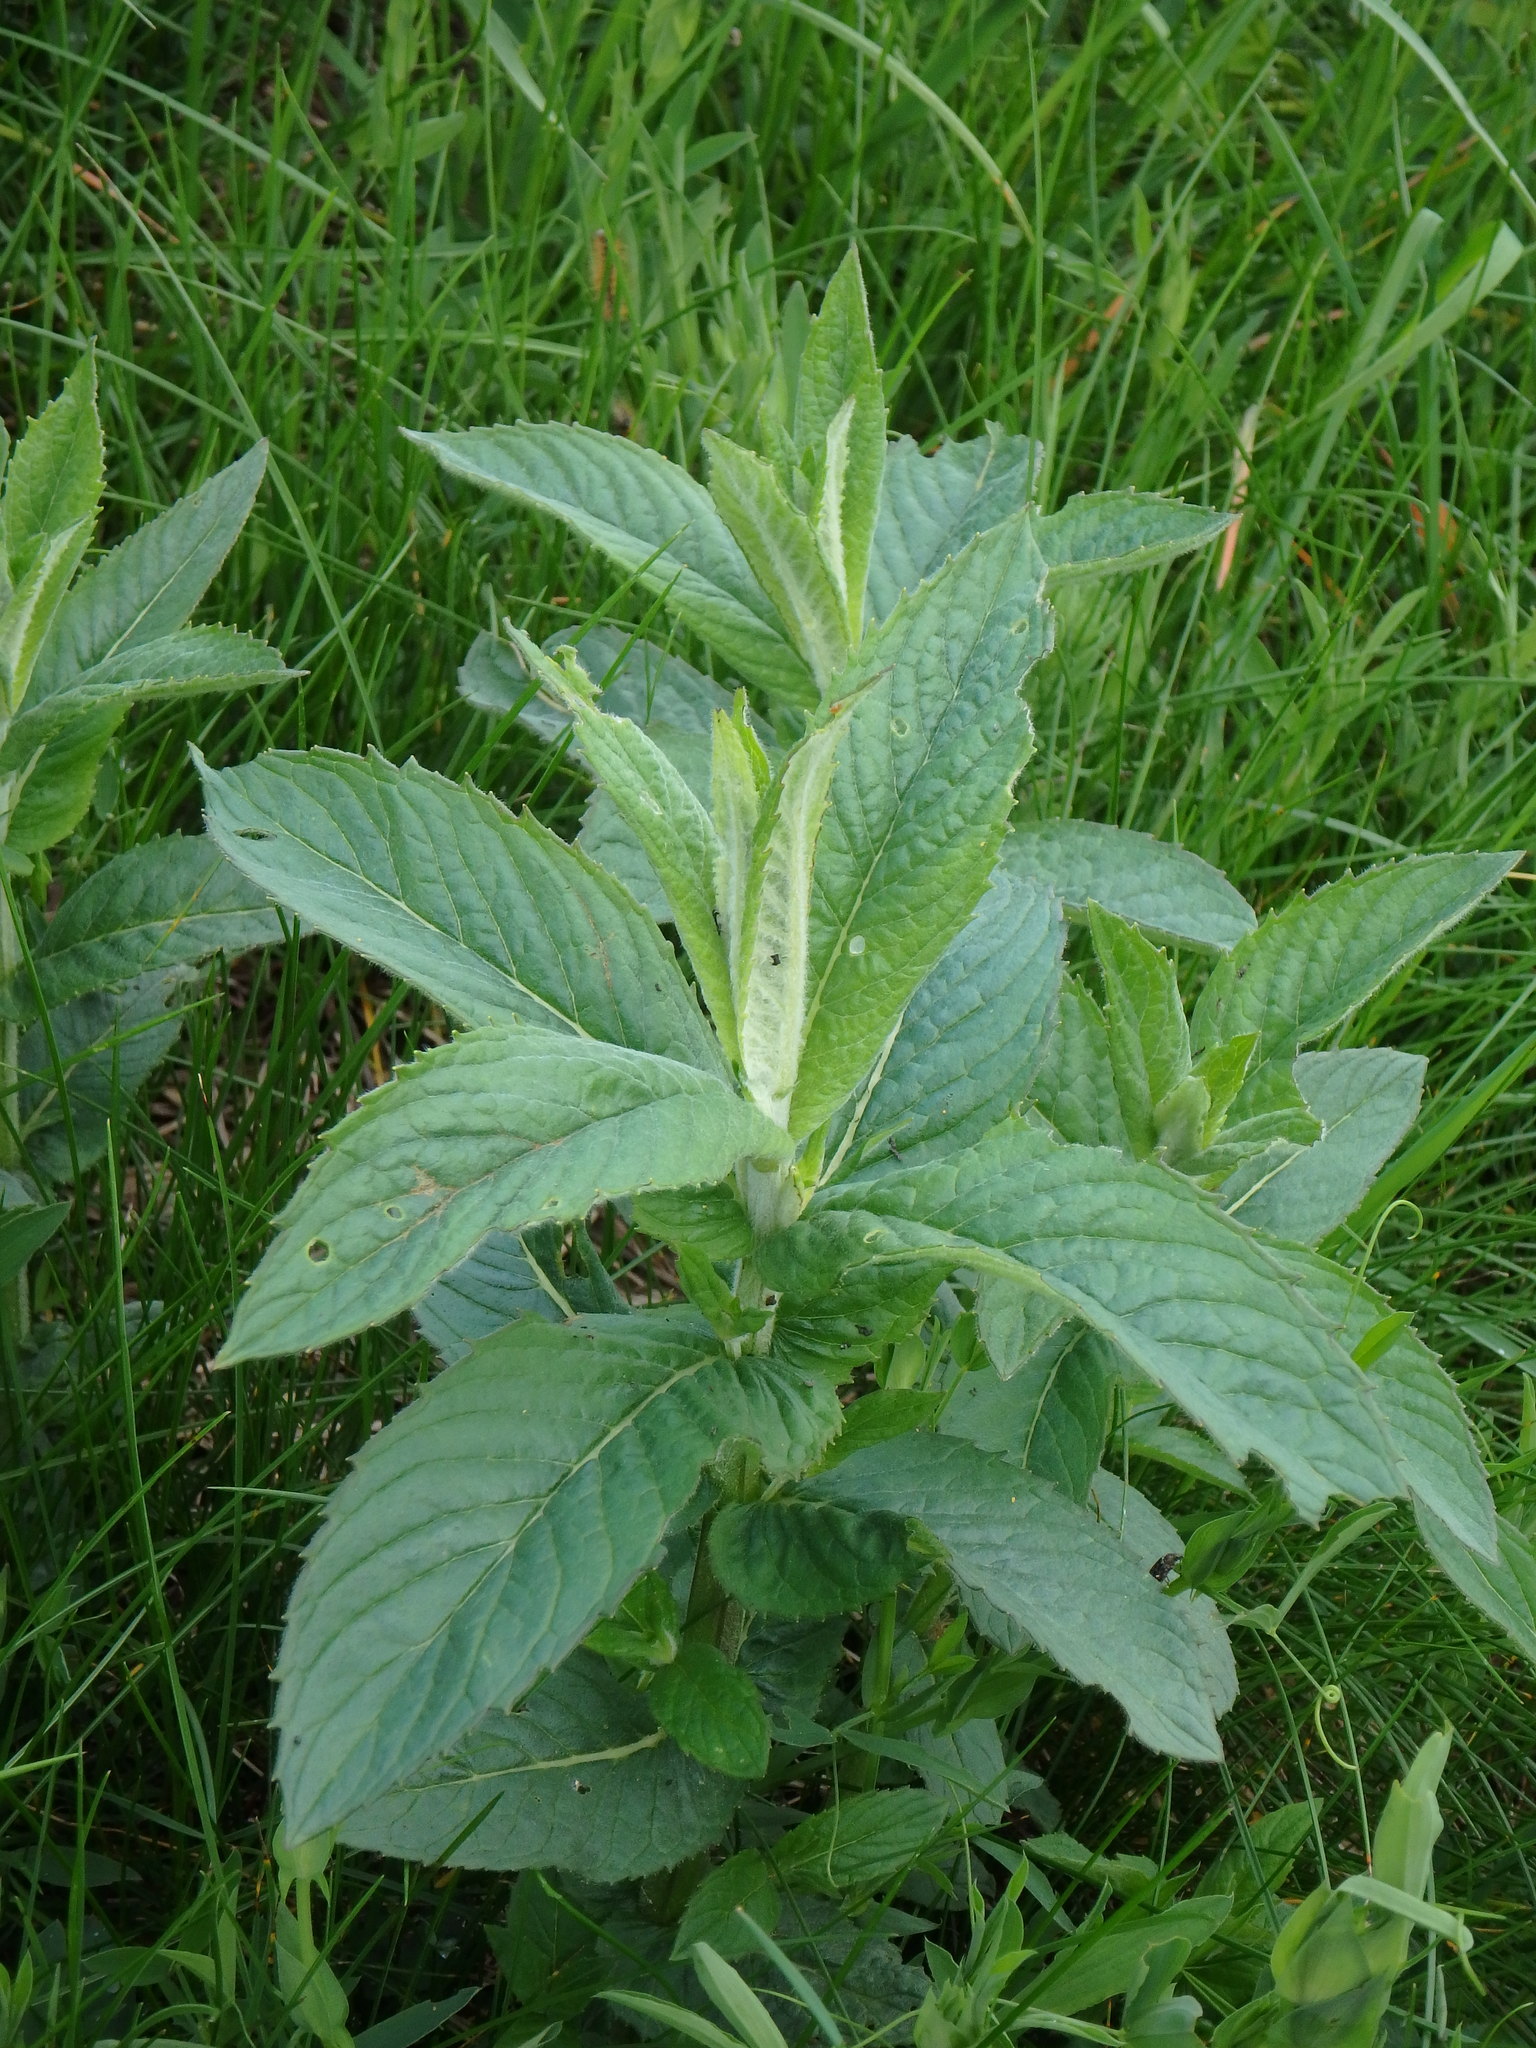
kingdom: Plantae
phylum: Tracheophyta
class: Magnoliopsida
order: Lamiales
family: Lamiaceae
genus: Mentha
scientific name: Mentha longifolia
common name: Horse mint
